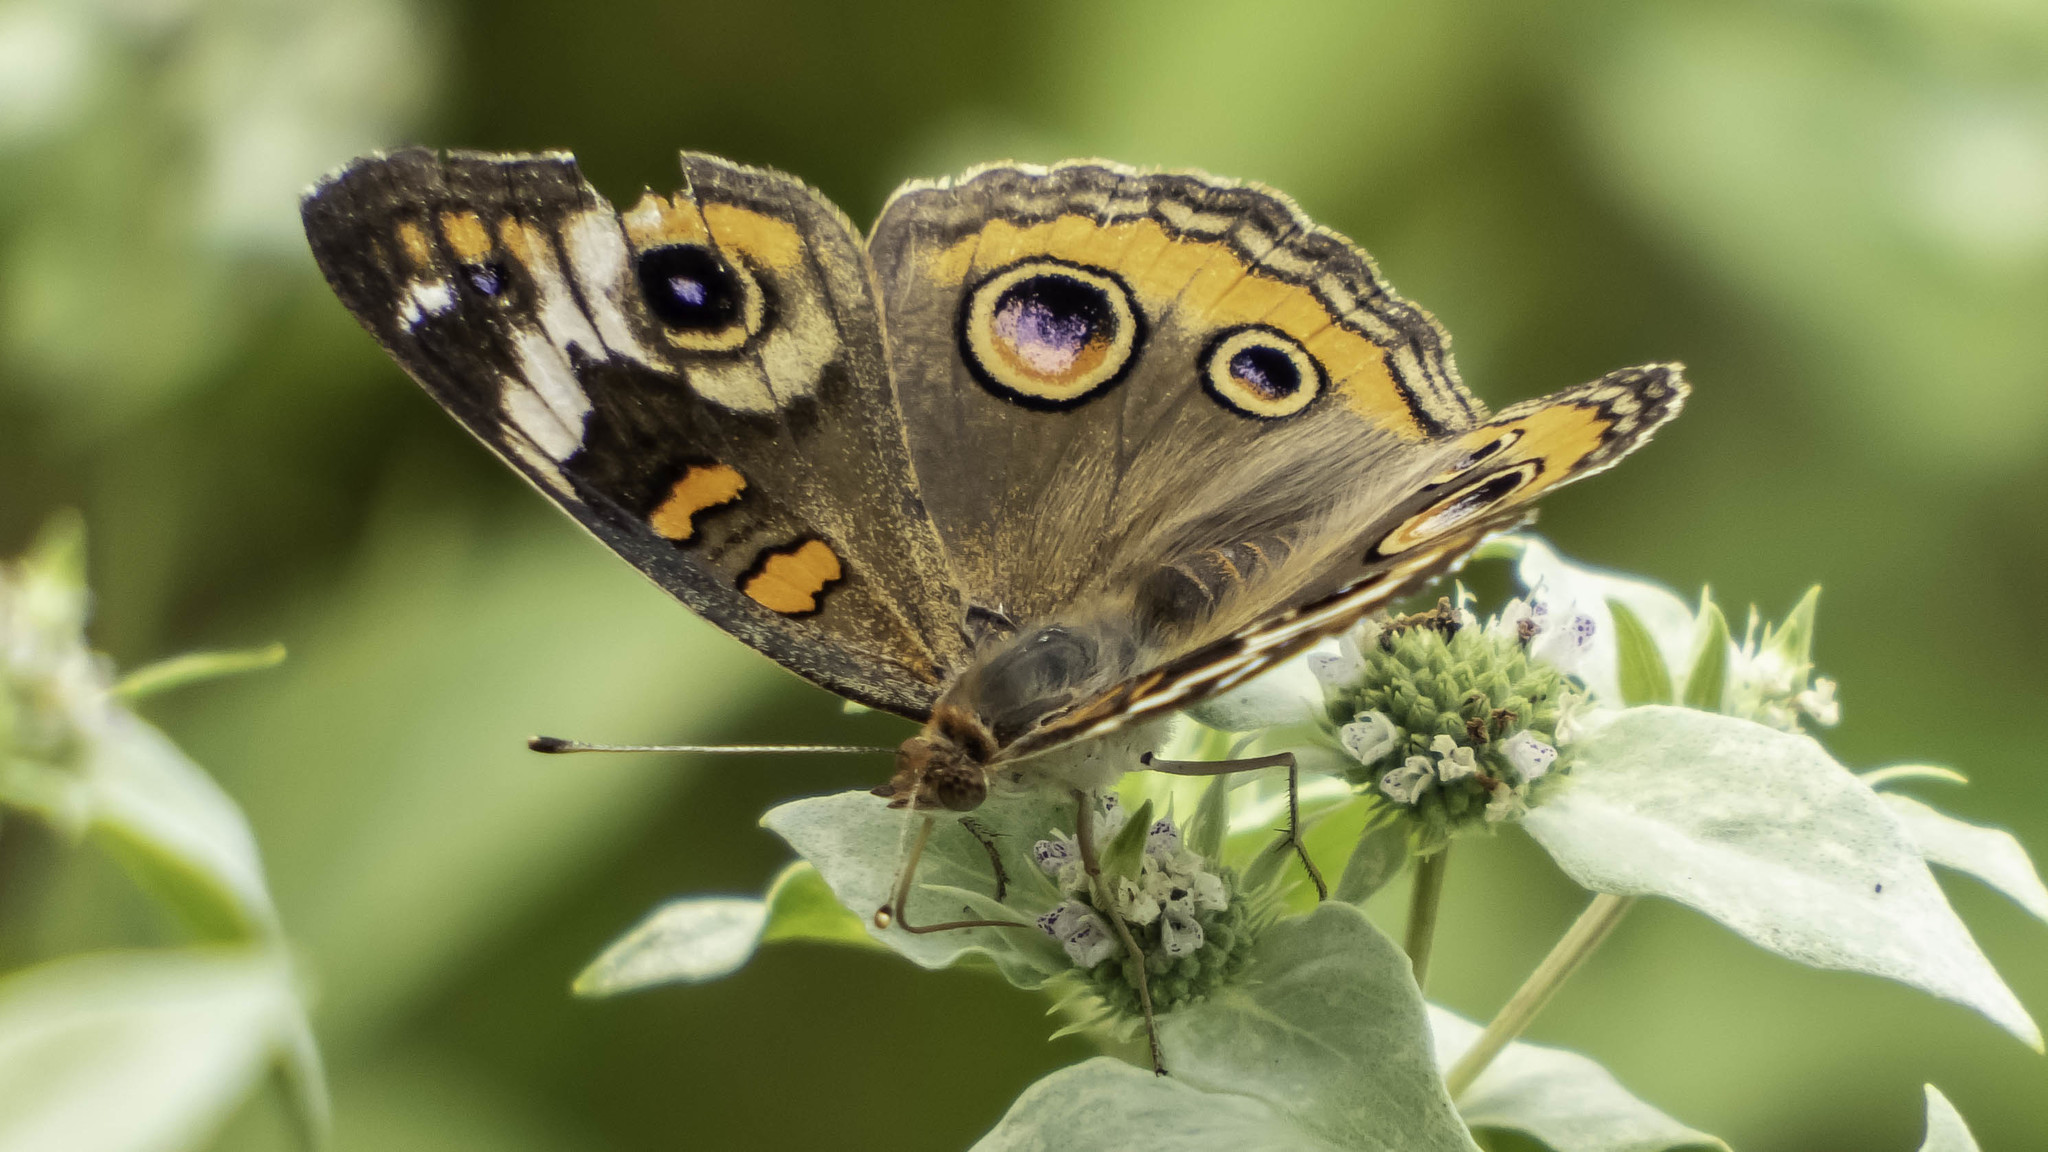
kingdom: Animalia
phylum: Arthropoda
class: Insecta
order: Lepidoptera
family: Nymphalidae
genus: Junonia
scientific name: Junonia coenia
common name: Common buckeye
